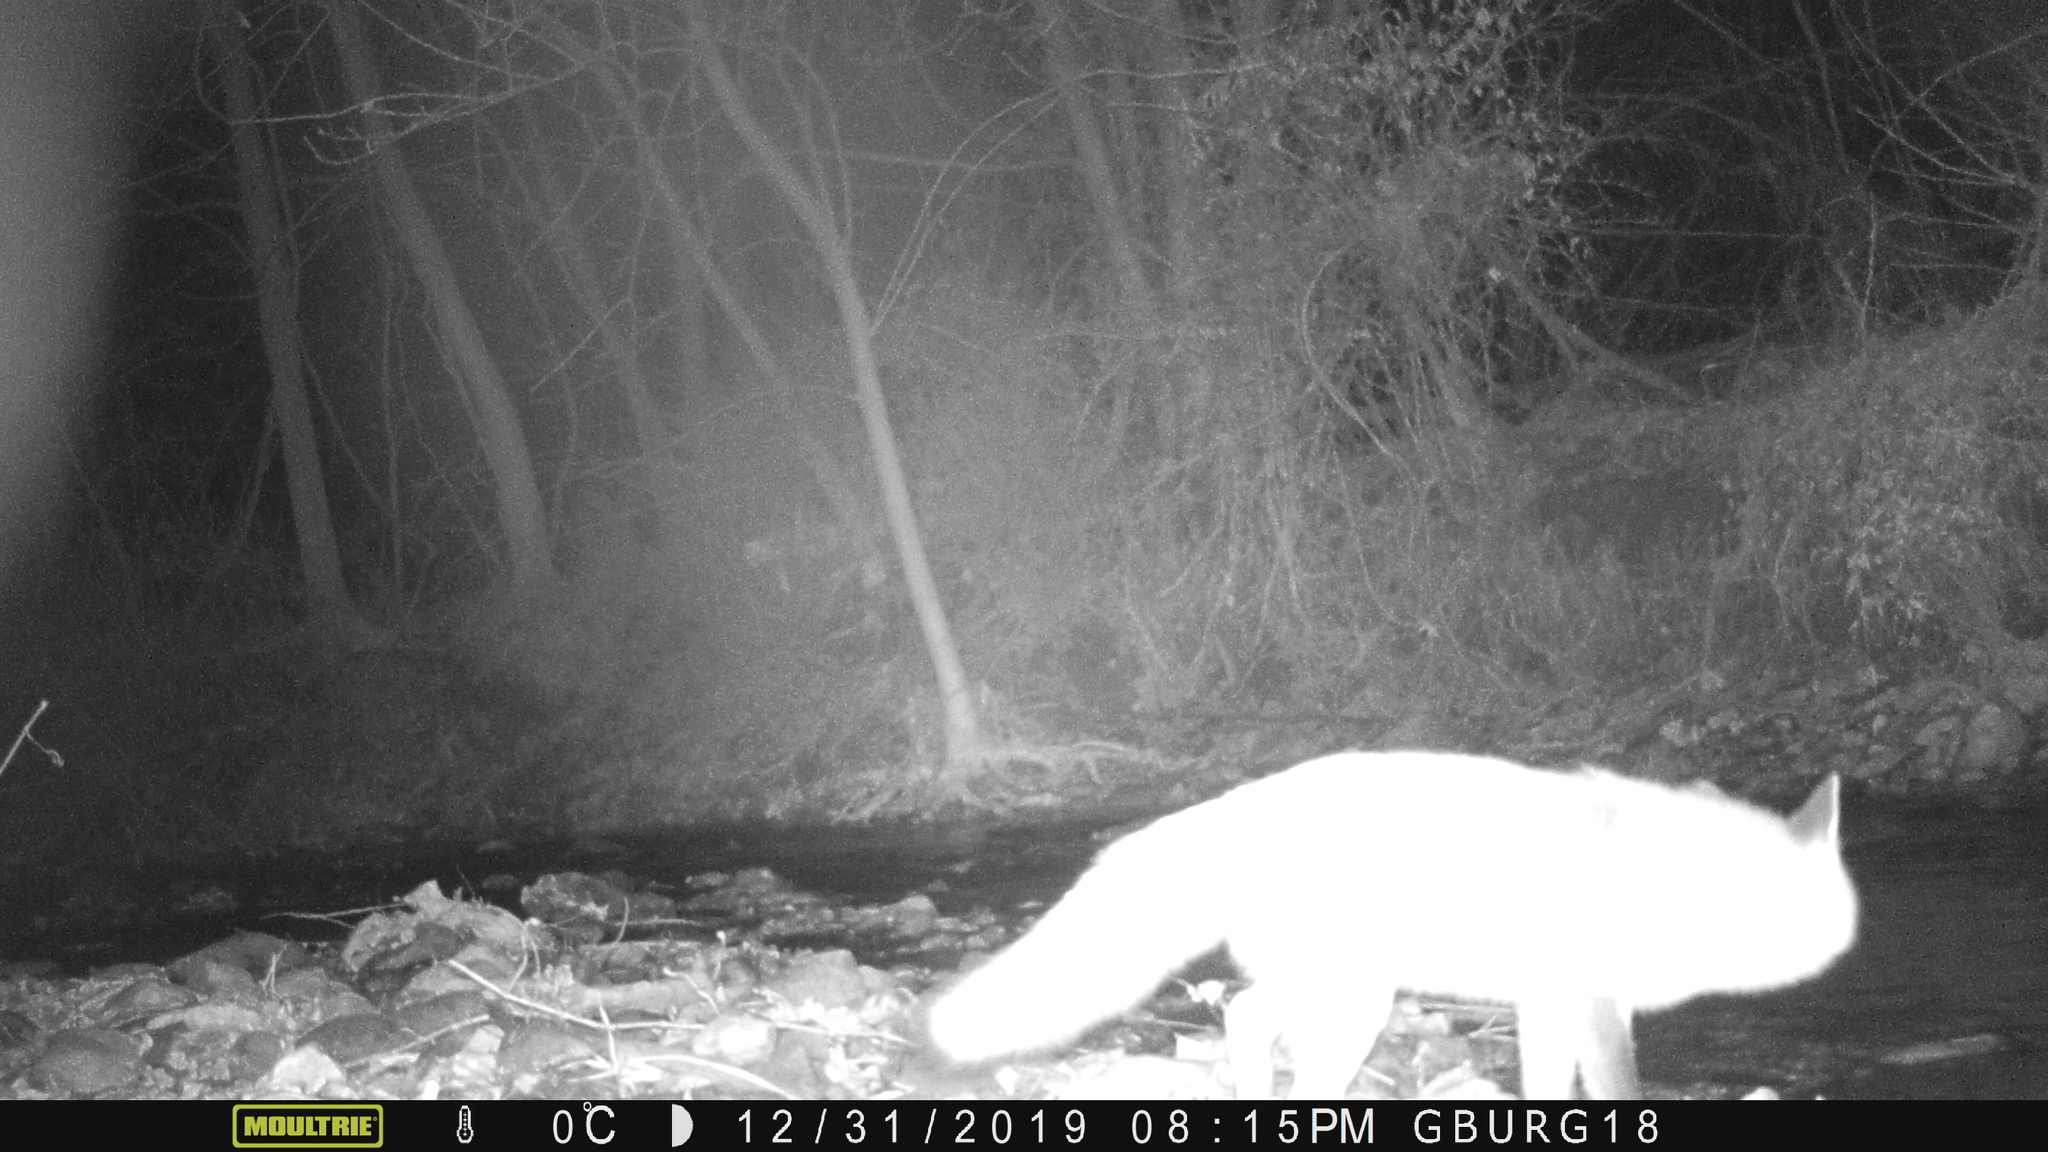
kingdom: Animalia
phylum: Chordata
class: Mammalia
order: Carnivora
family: Canidae
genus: Vulpes
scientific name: Vulpes vulpes
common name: Red fox
